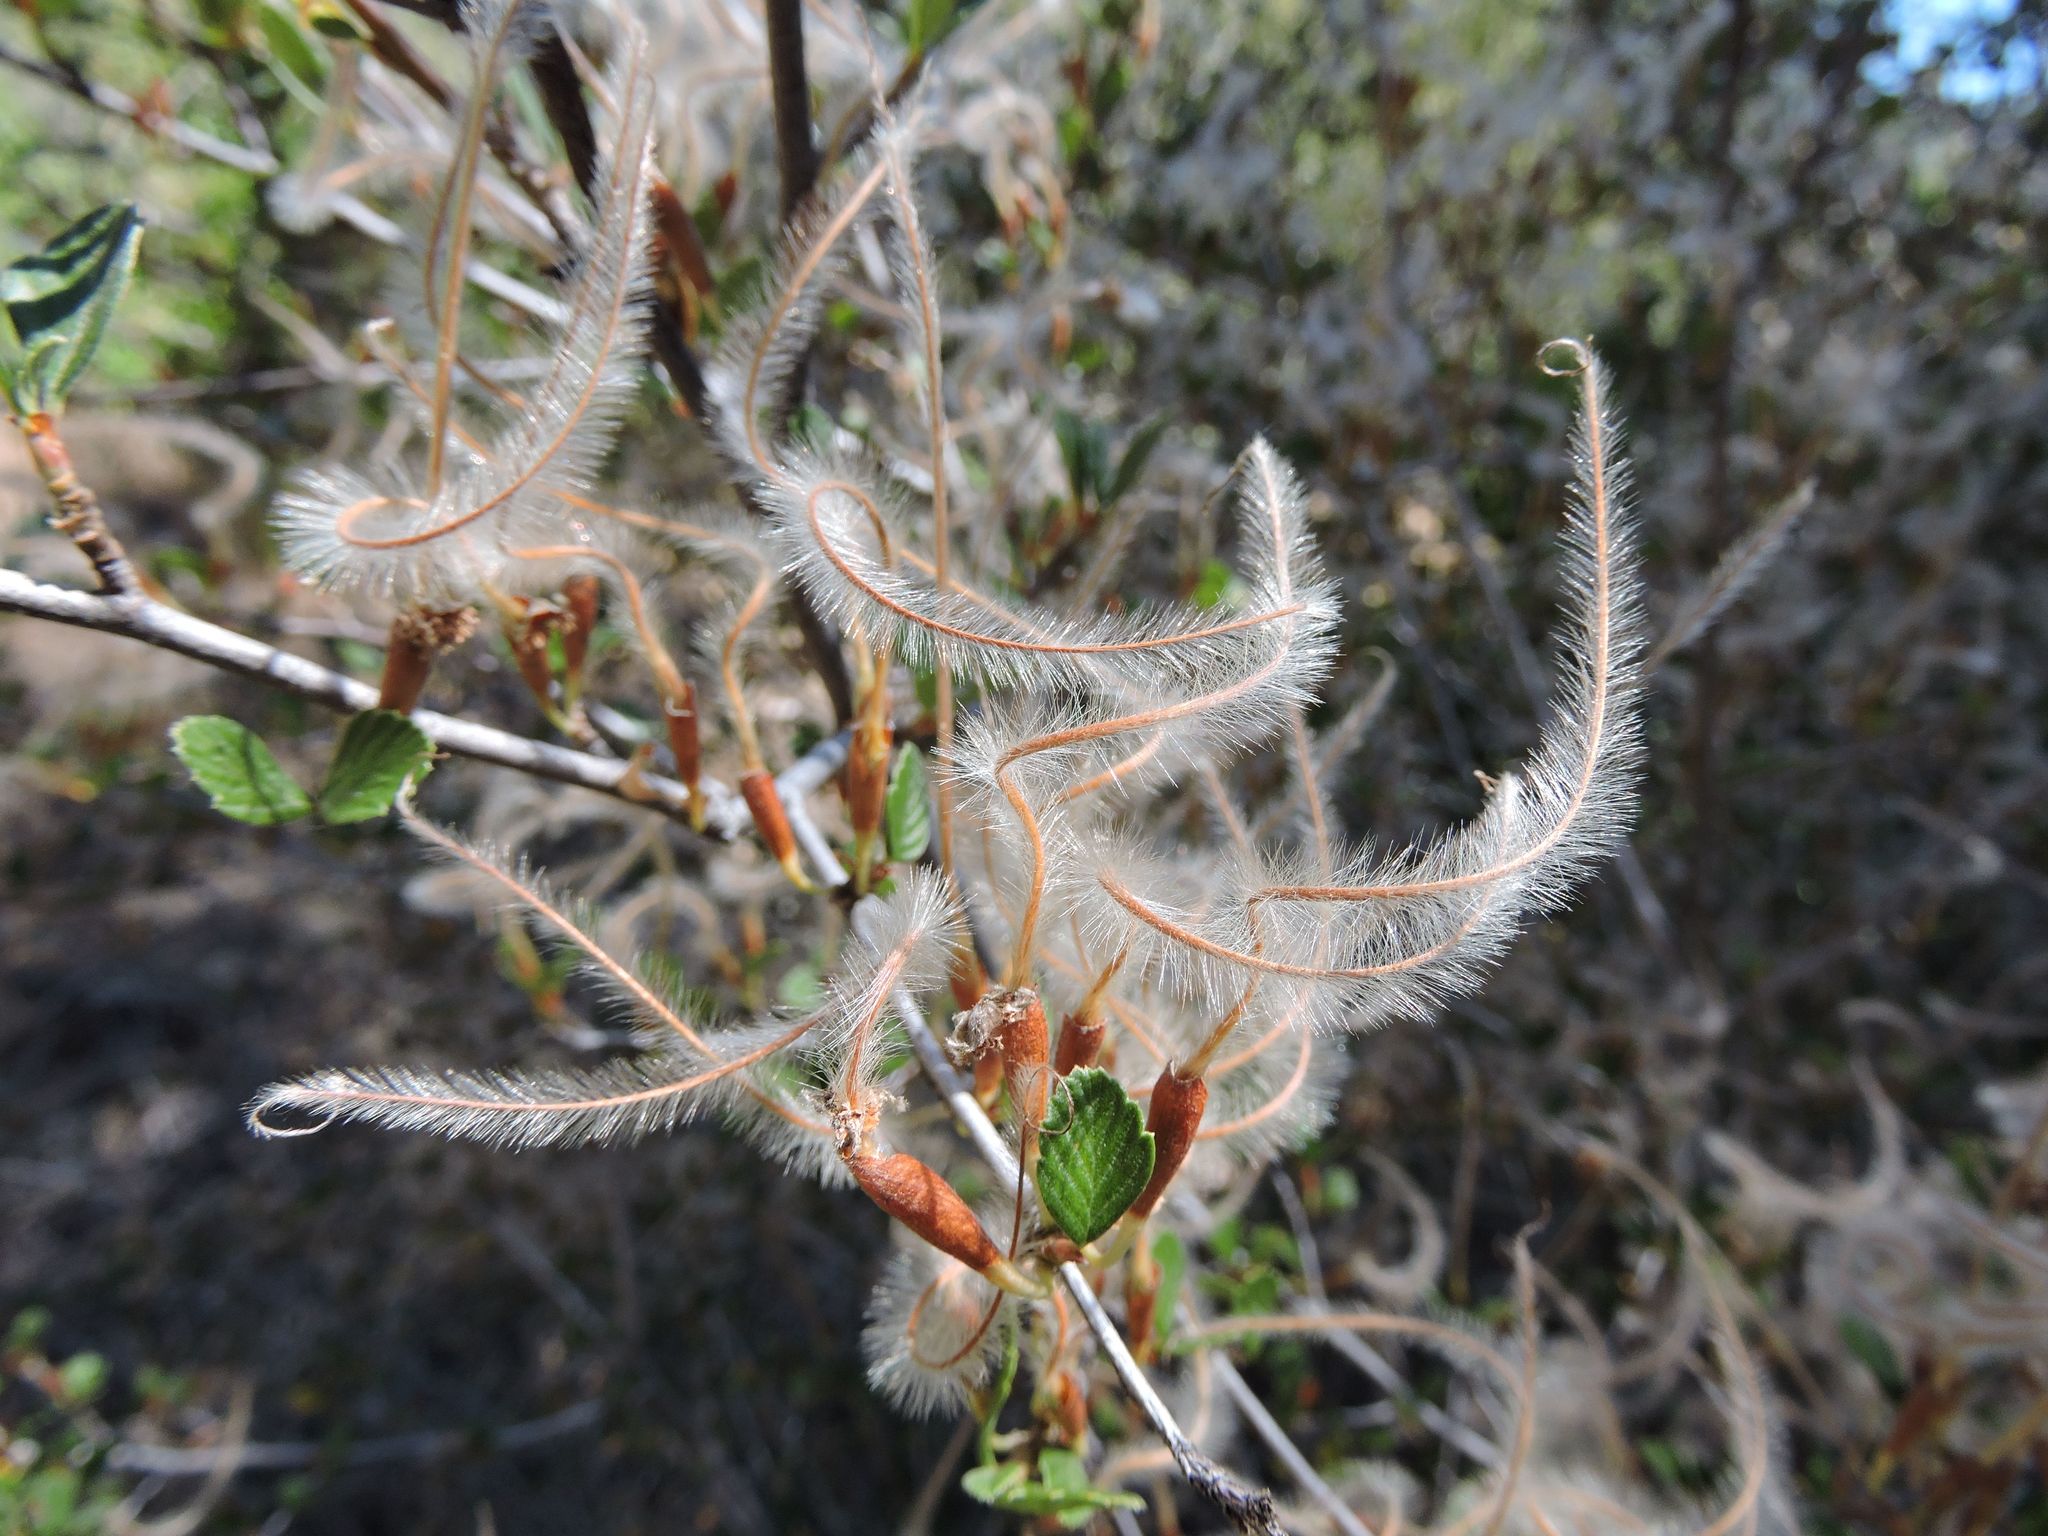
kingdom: Plantae
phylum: Tracheophyta
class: Magnoliopsida
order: Rosales
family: Rosaceae
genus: Cercocarpus
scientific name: Cercocarpus betuloides
